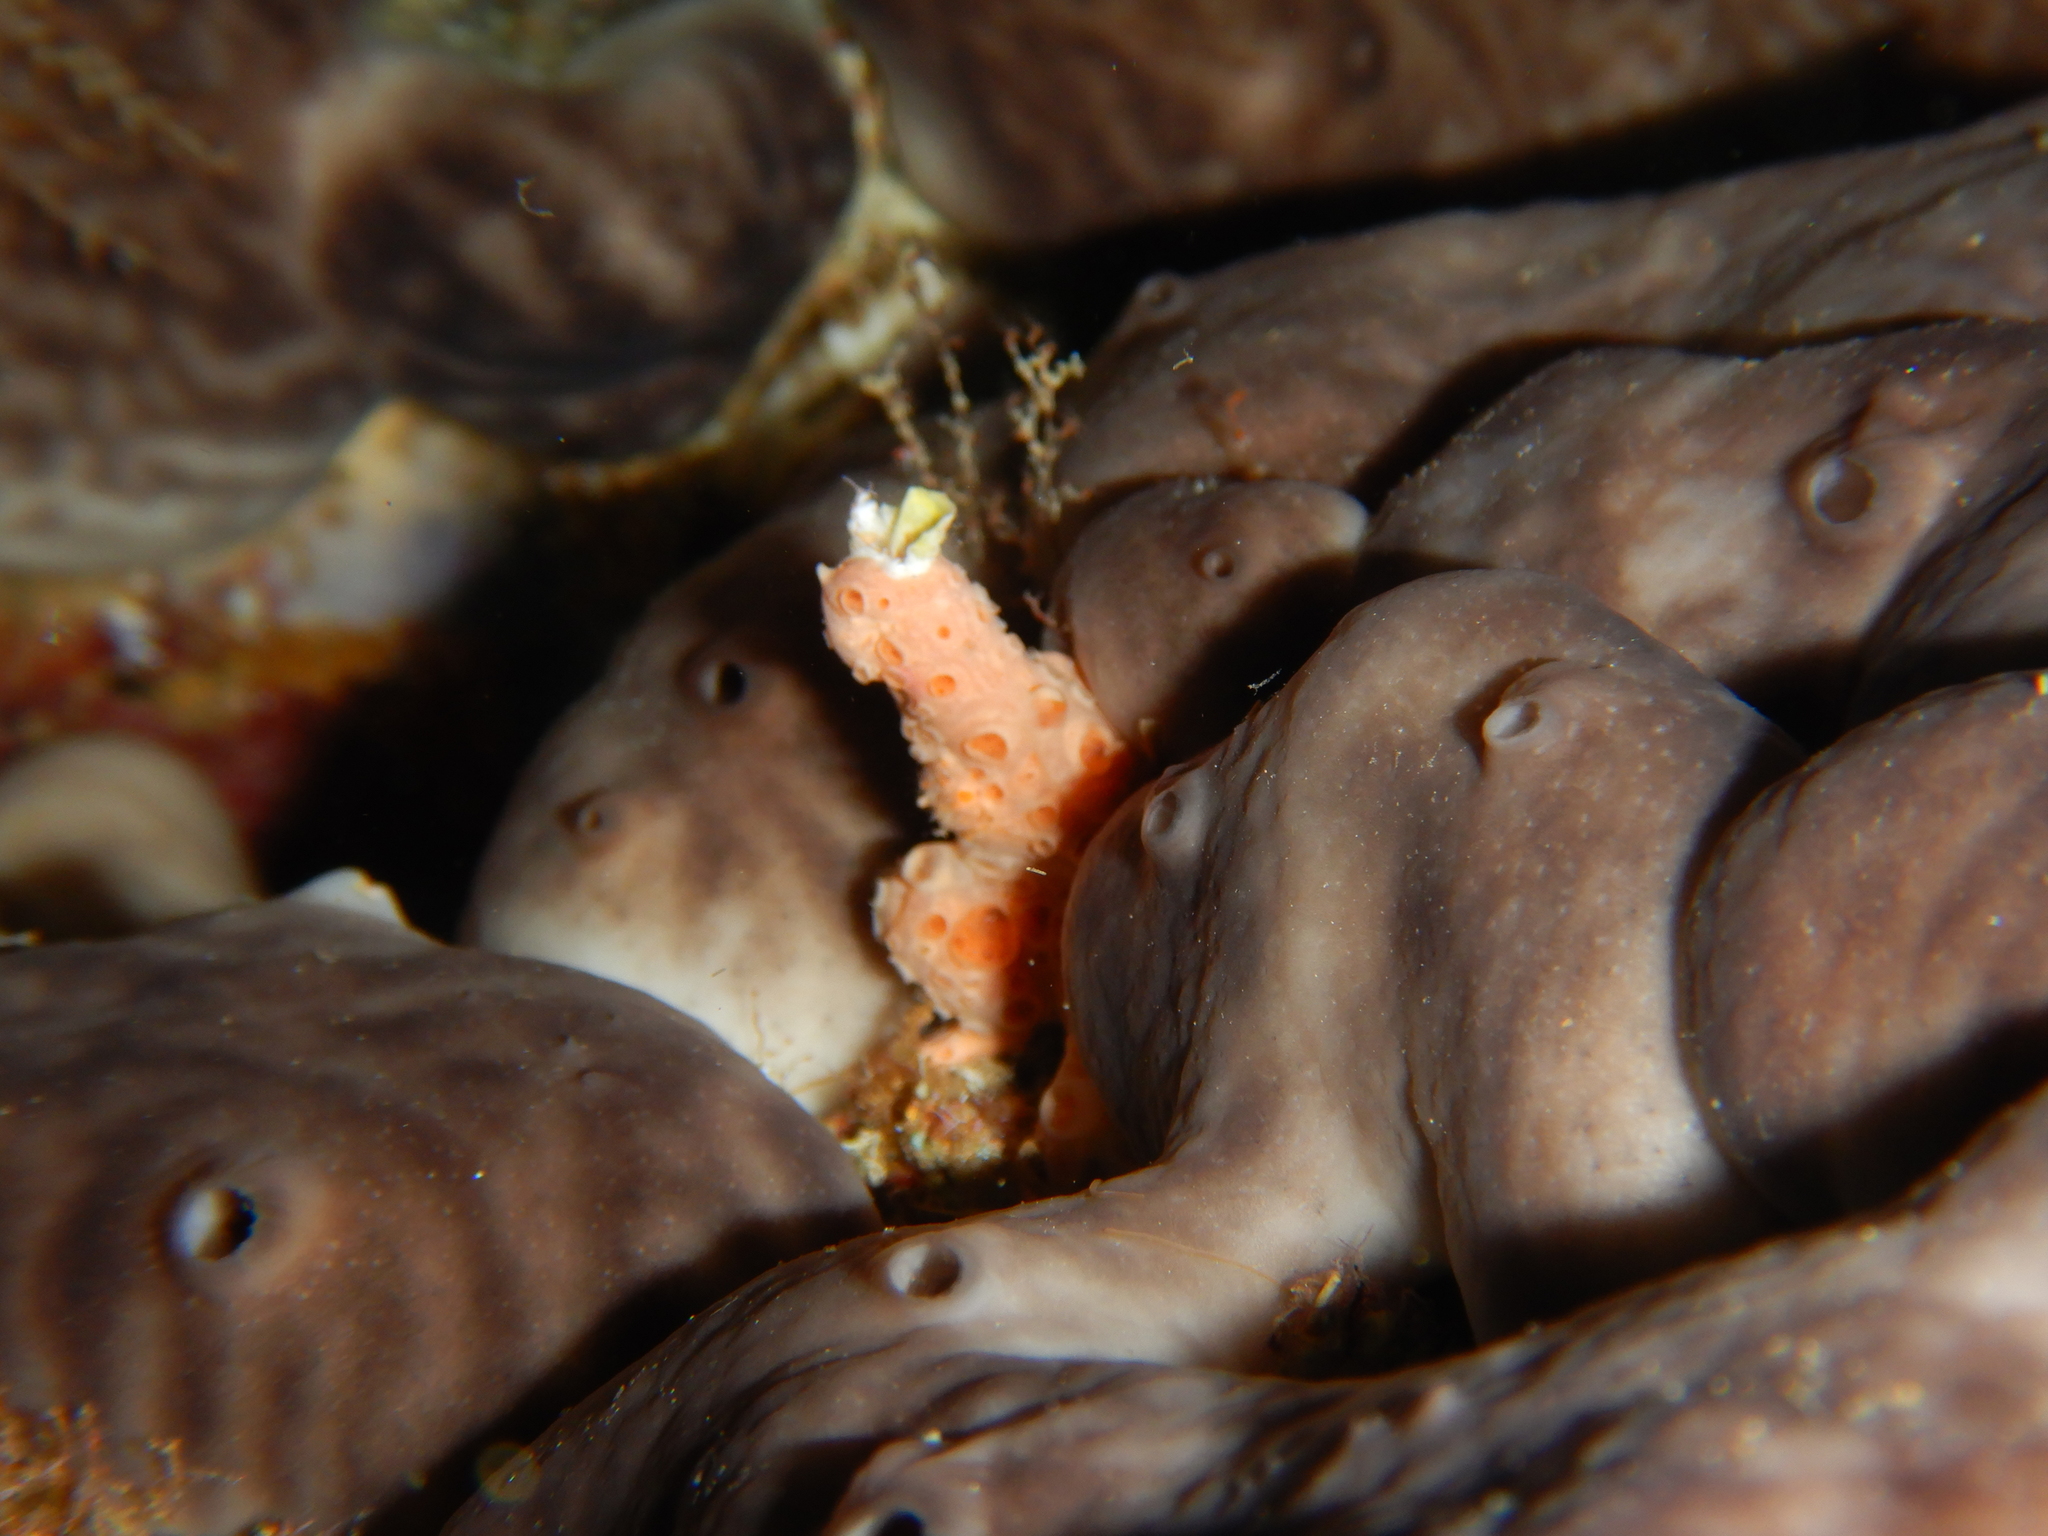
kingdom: Animalia
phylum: Porifera
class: Demospongiae
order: Poecilosclerida
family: Hymedesmiidae
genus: Hemimycale
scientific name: Hemimycale columella
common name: Crater sponge
